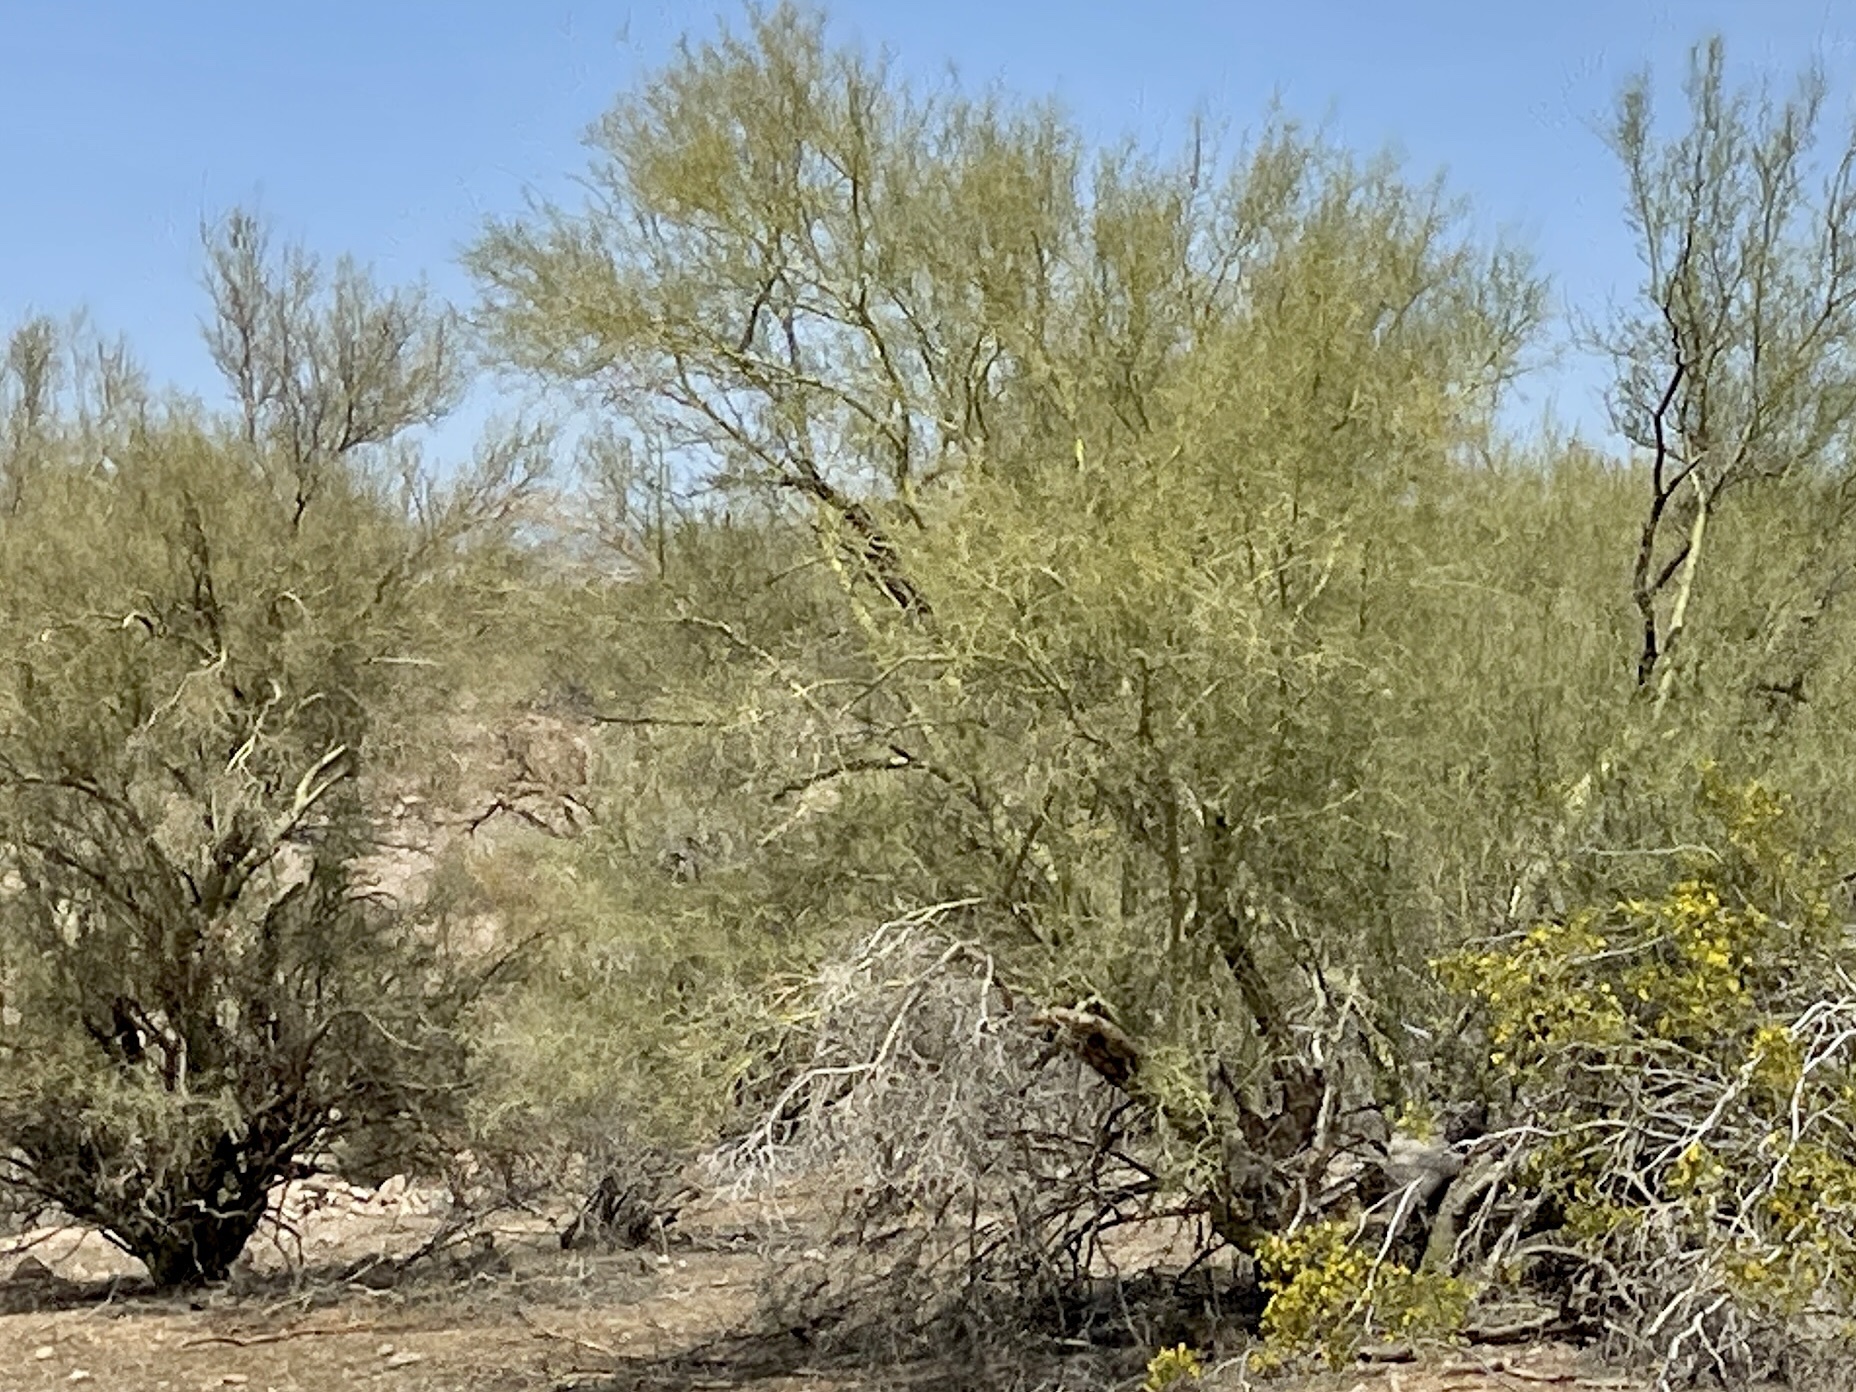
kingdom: Plantae
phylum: Tracheophyta
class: Magnoliopsida
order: Fabales
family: Fabaceae
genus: Parkinsonia
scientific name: Parkinsonia microphylla
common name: Yellow paloverde
